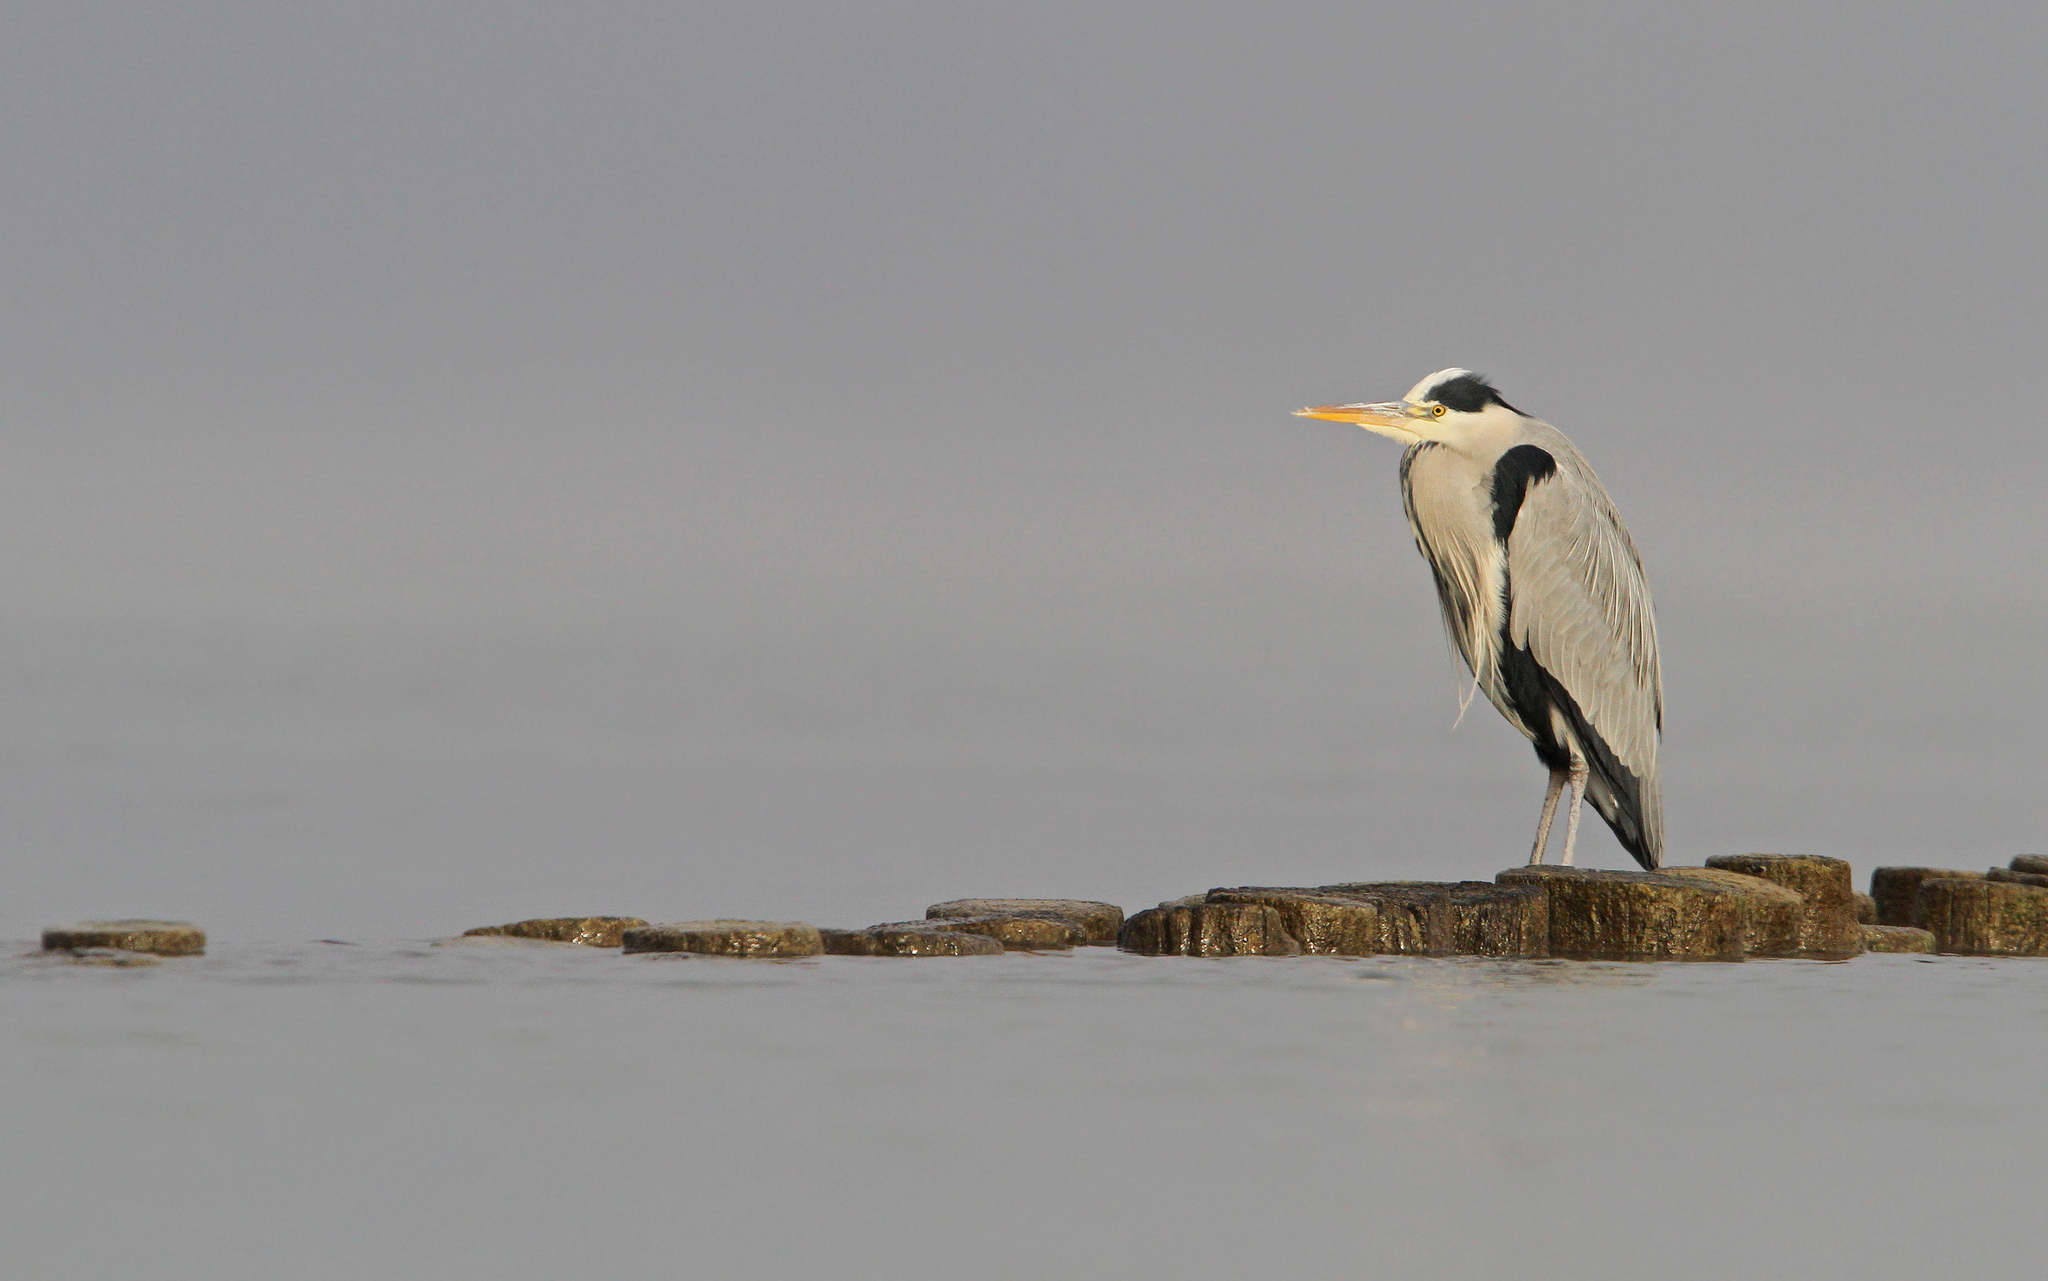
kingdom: Animalia
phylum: Chordata
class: Aves
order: Pelecaniformes
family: Ardeidae
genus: Ardea
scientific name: Ardea cinerea
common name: Grey heron
